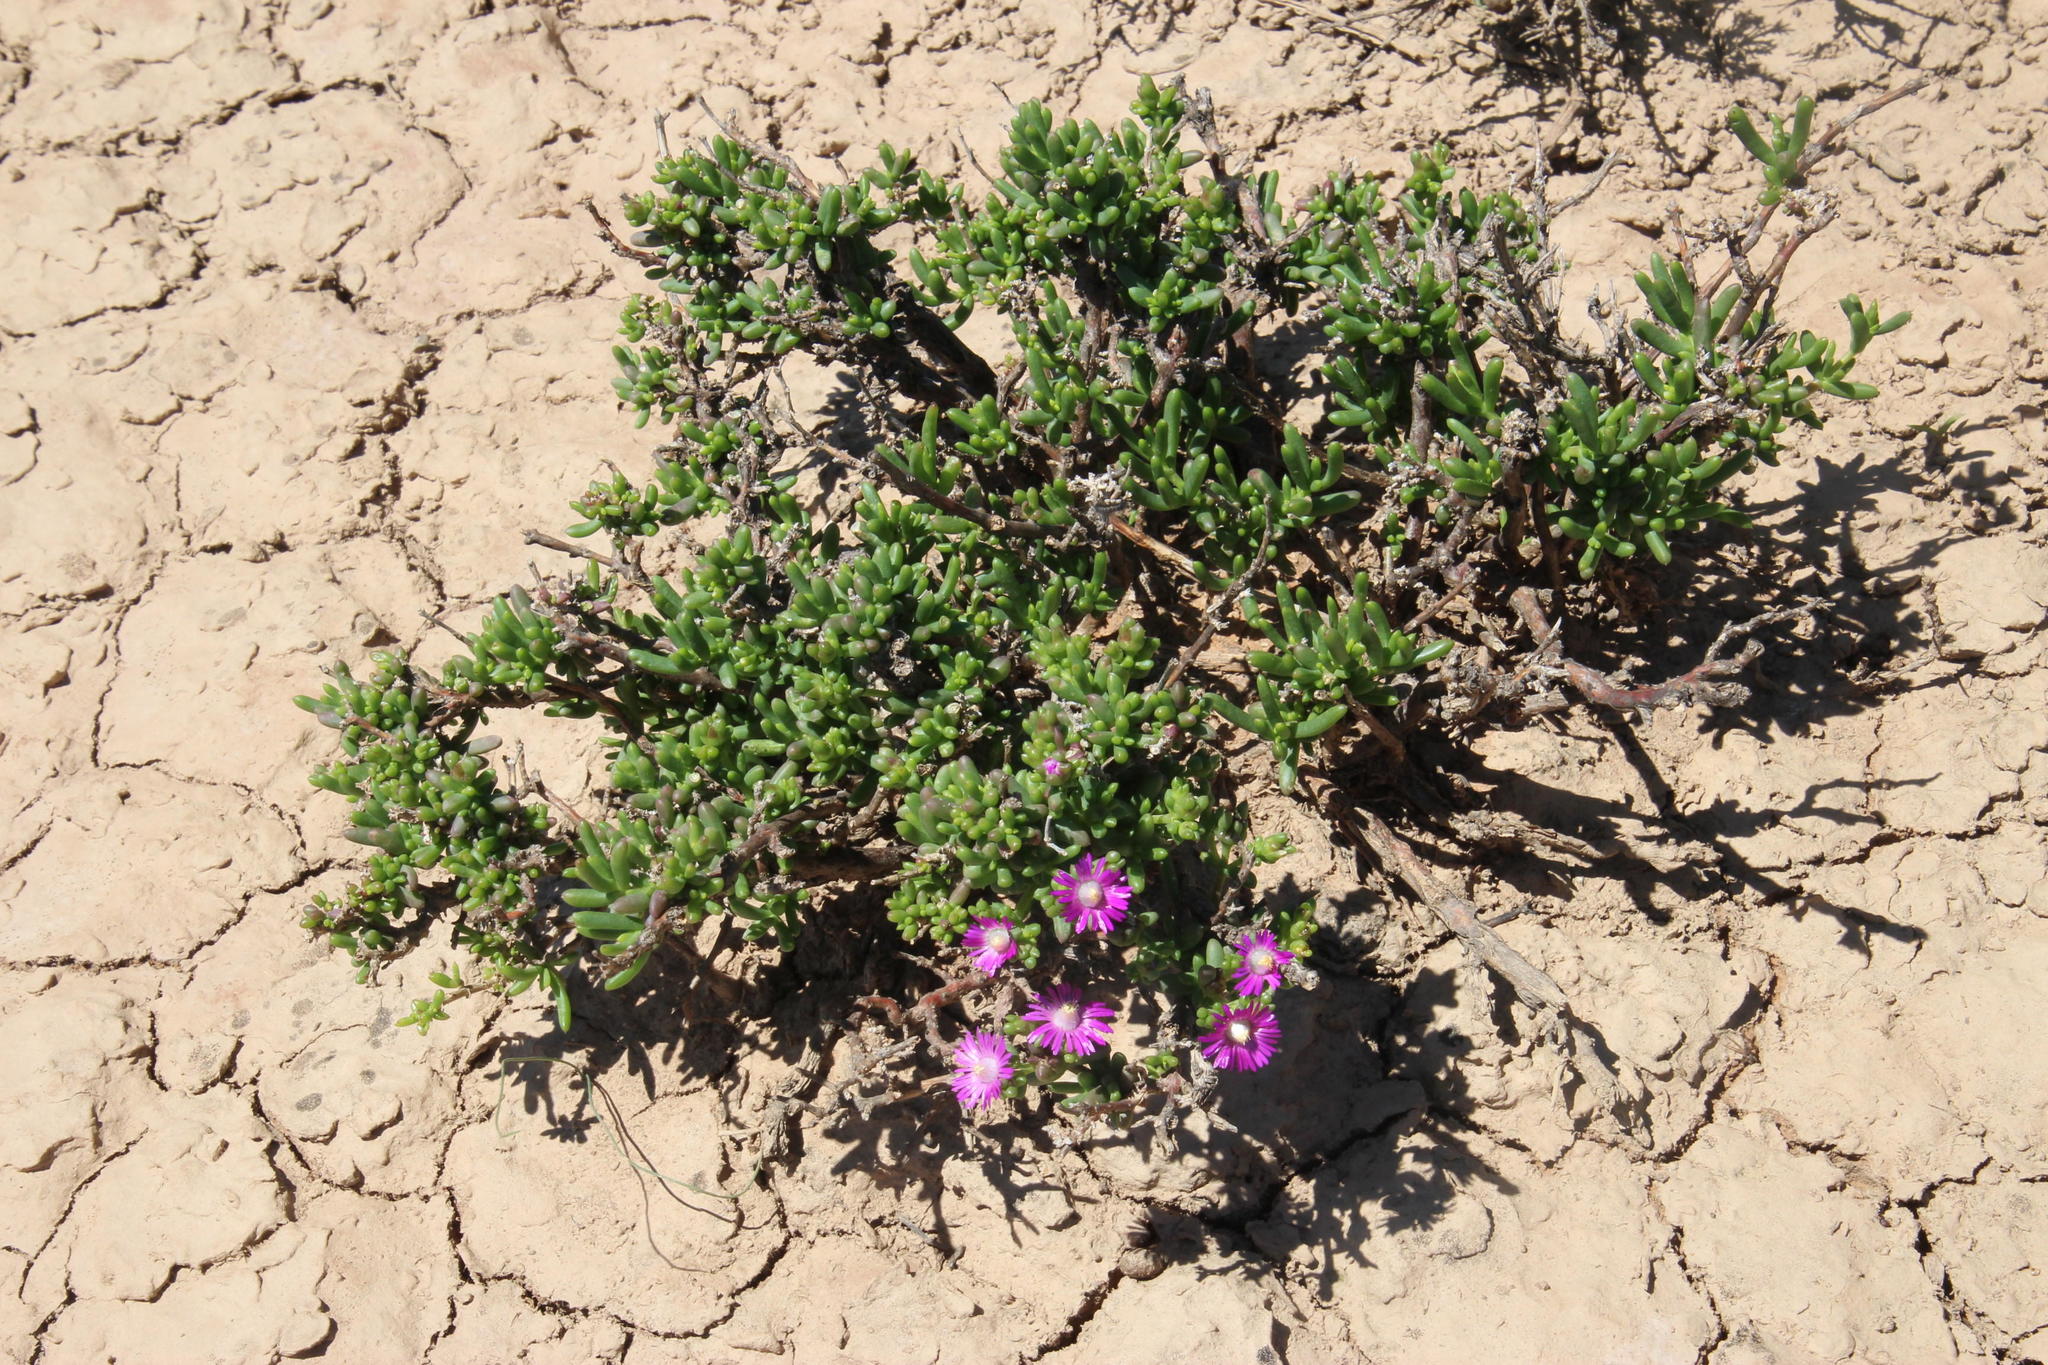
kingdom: Plantae
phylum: Tracheophyta
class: Magnoliopsida
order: Caryophyllales
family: Aizoaceae
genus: Delosperma
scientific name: Delosperma peersii
